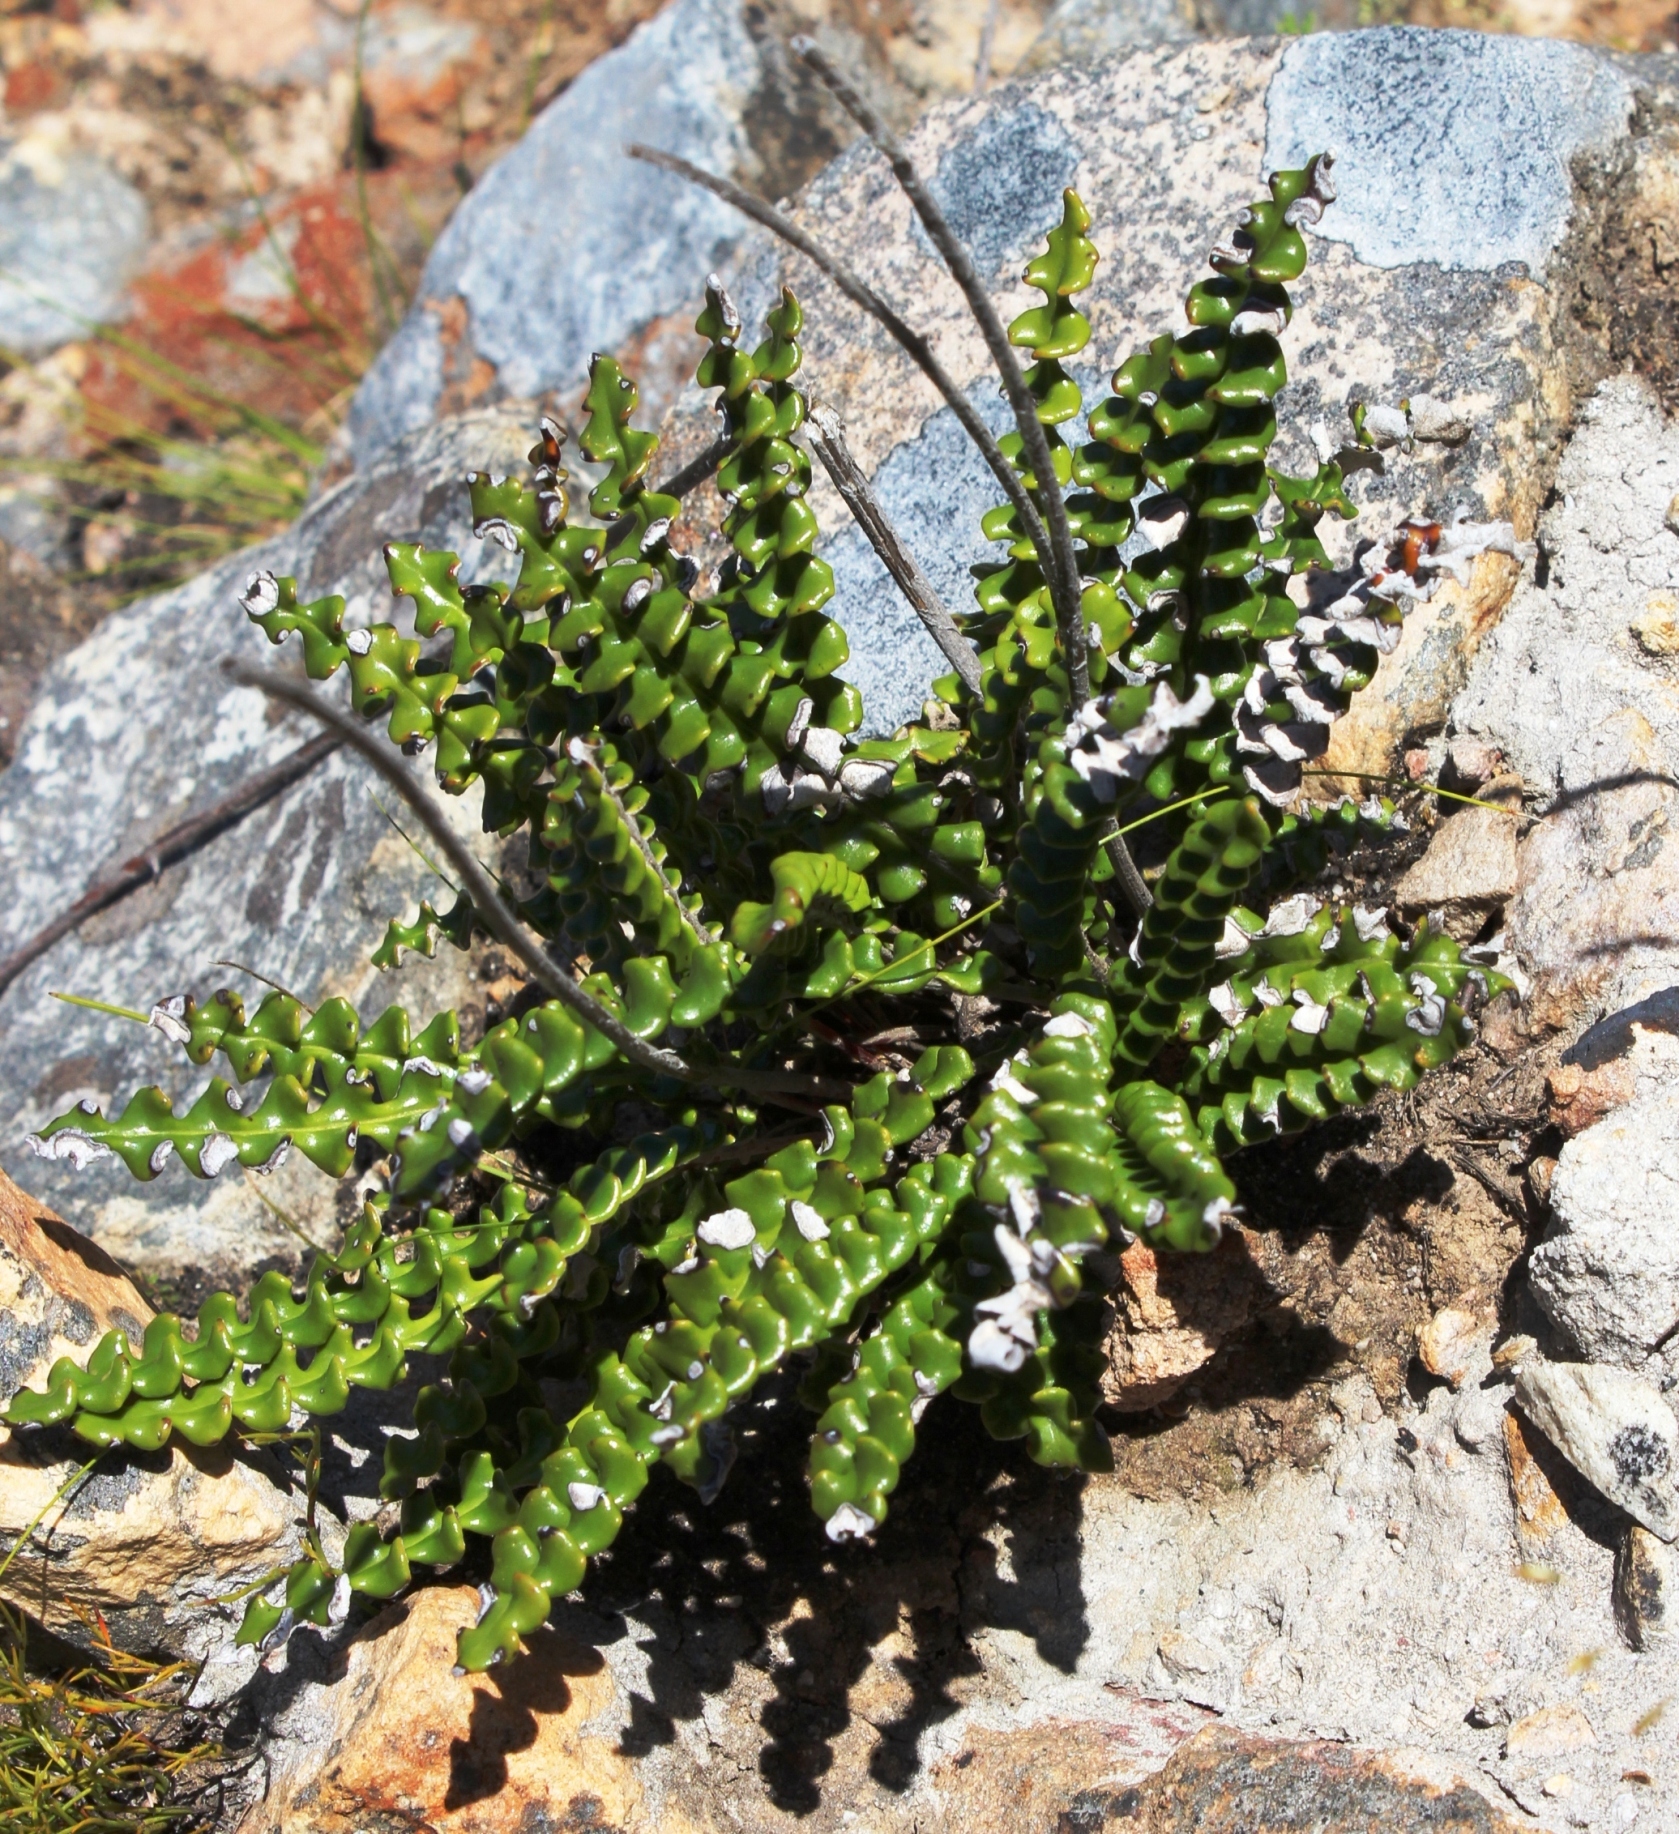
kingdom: Plantae
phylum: Tracheophyta
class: Magnoliopsida
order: Asterales
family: Asteraceae
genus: Gerbera
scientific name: Gerbera linnaei
